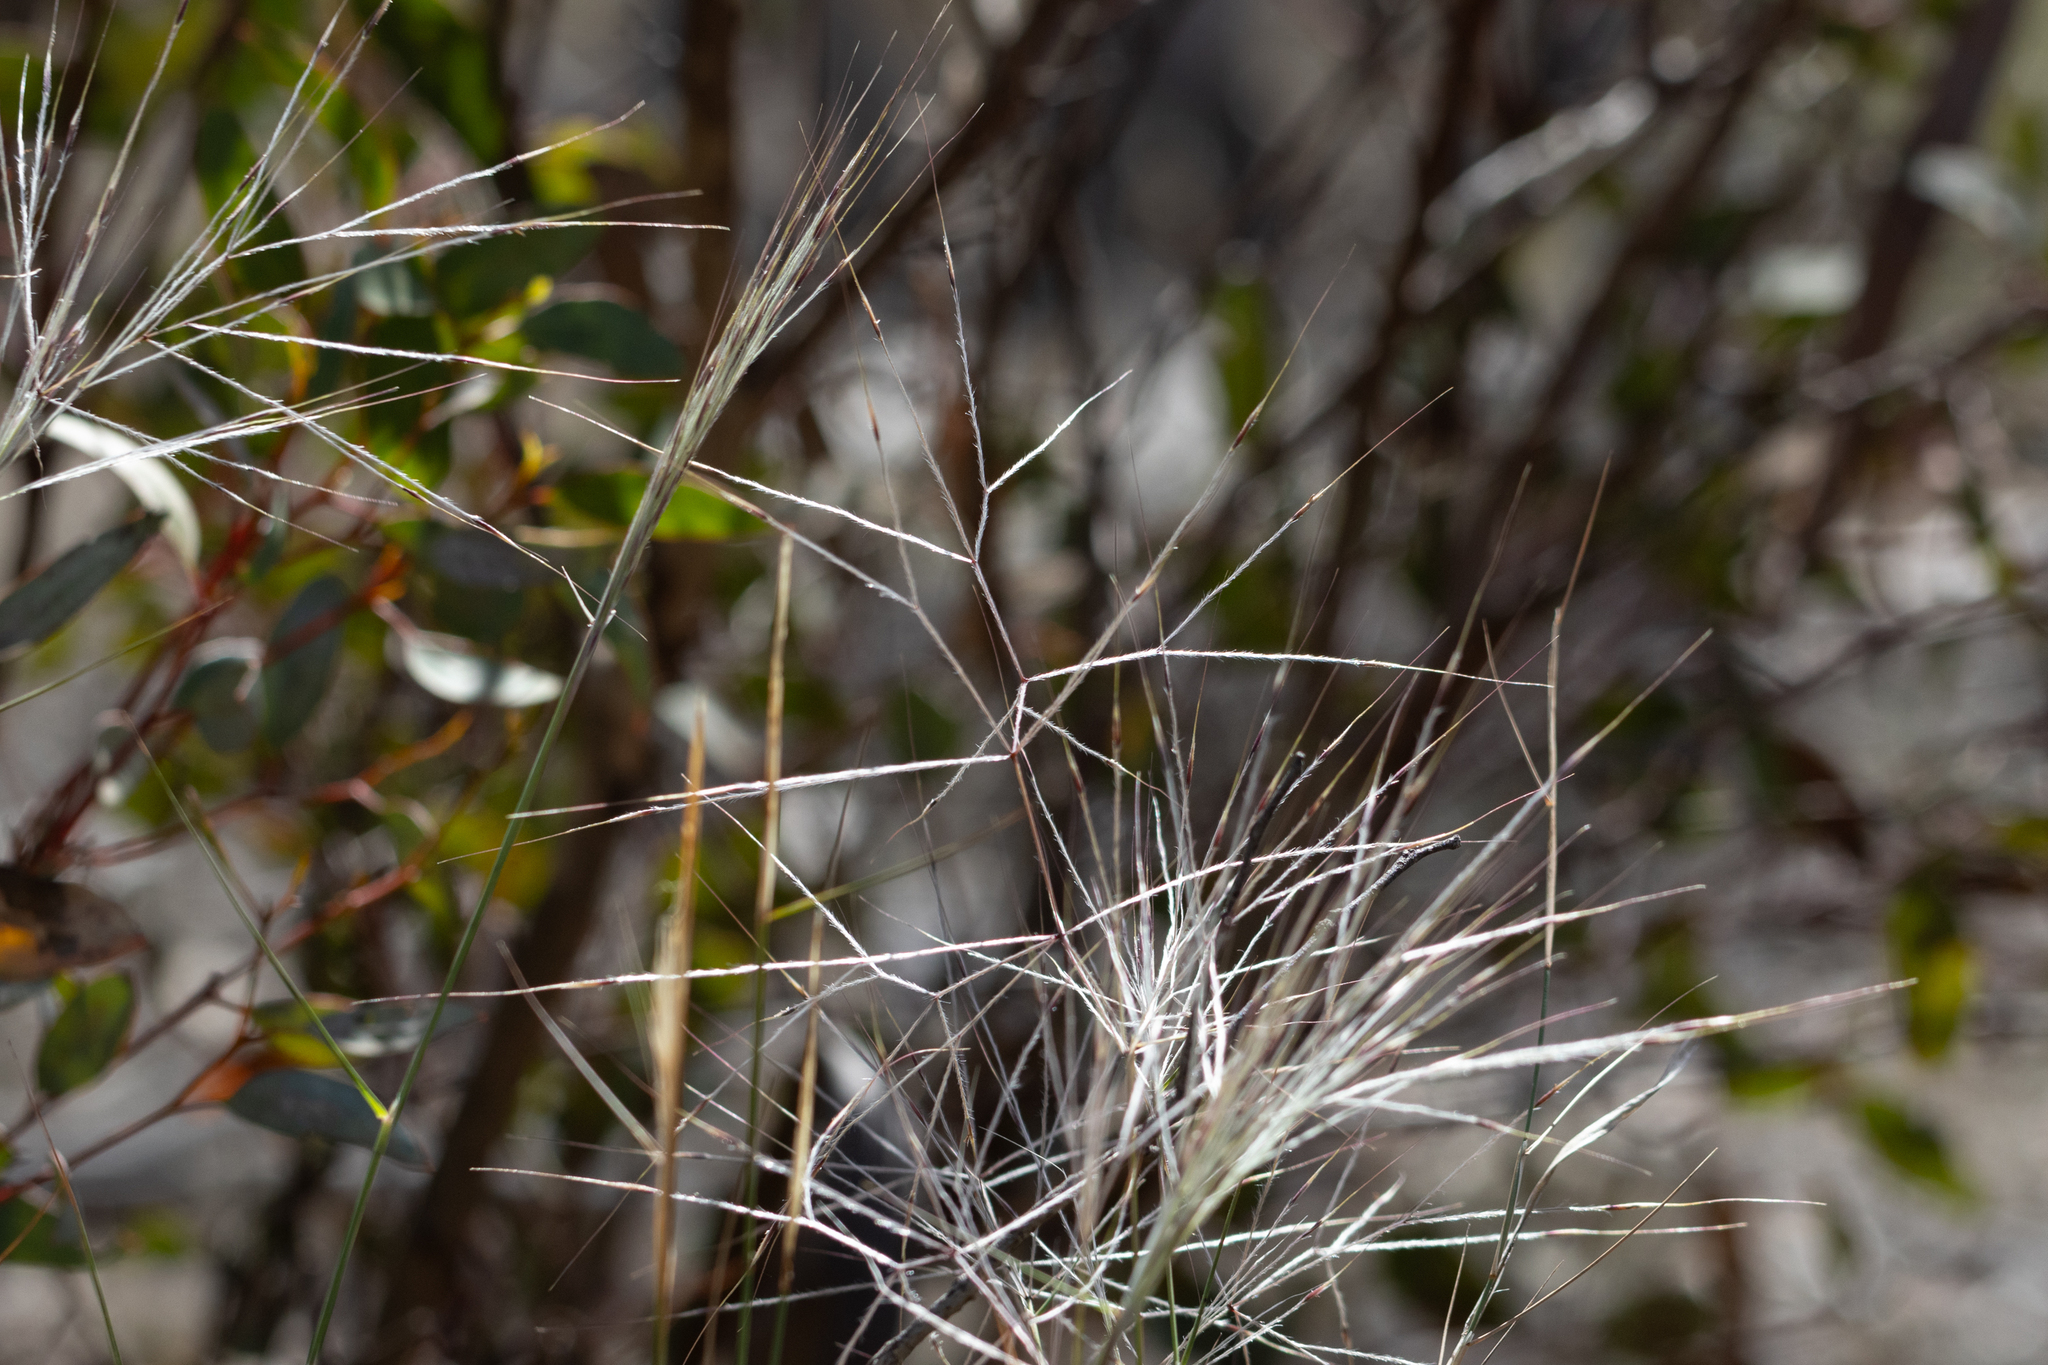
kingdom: Plantae
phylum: Tracheophyta
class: Liliopsida
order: Poales
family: Poaceae
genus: Austrostipa
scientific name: Austrostipa elegantissima
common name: Feather spear grass
